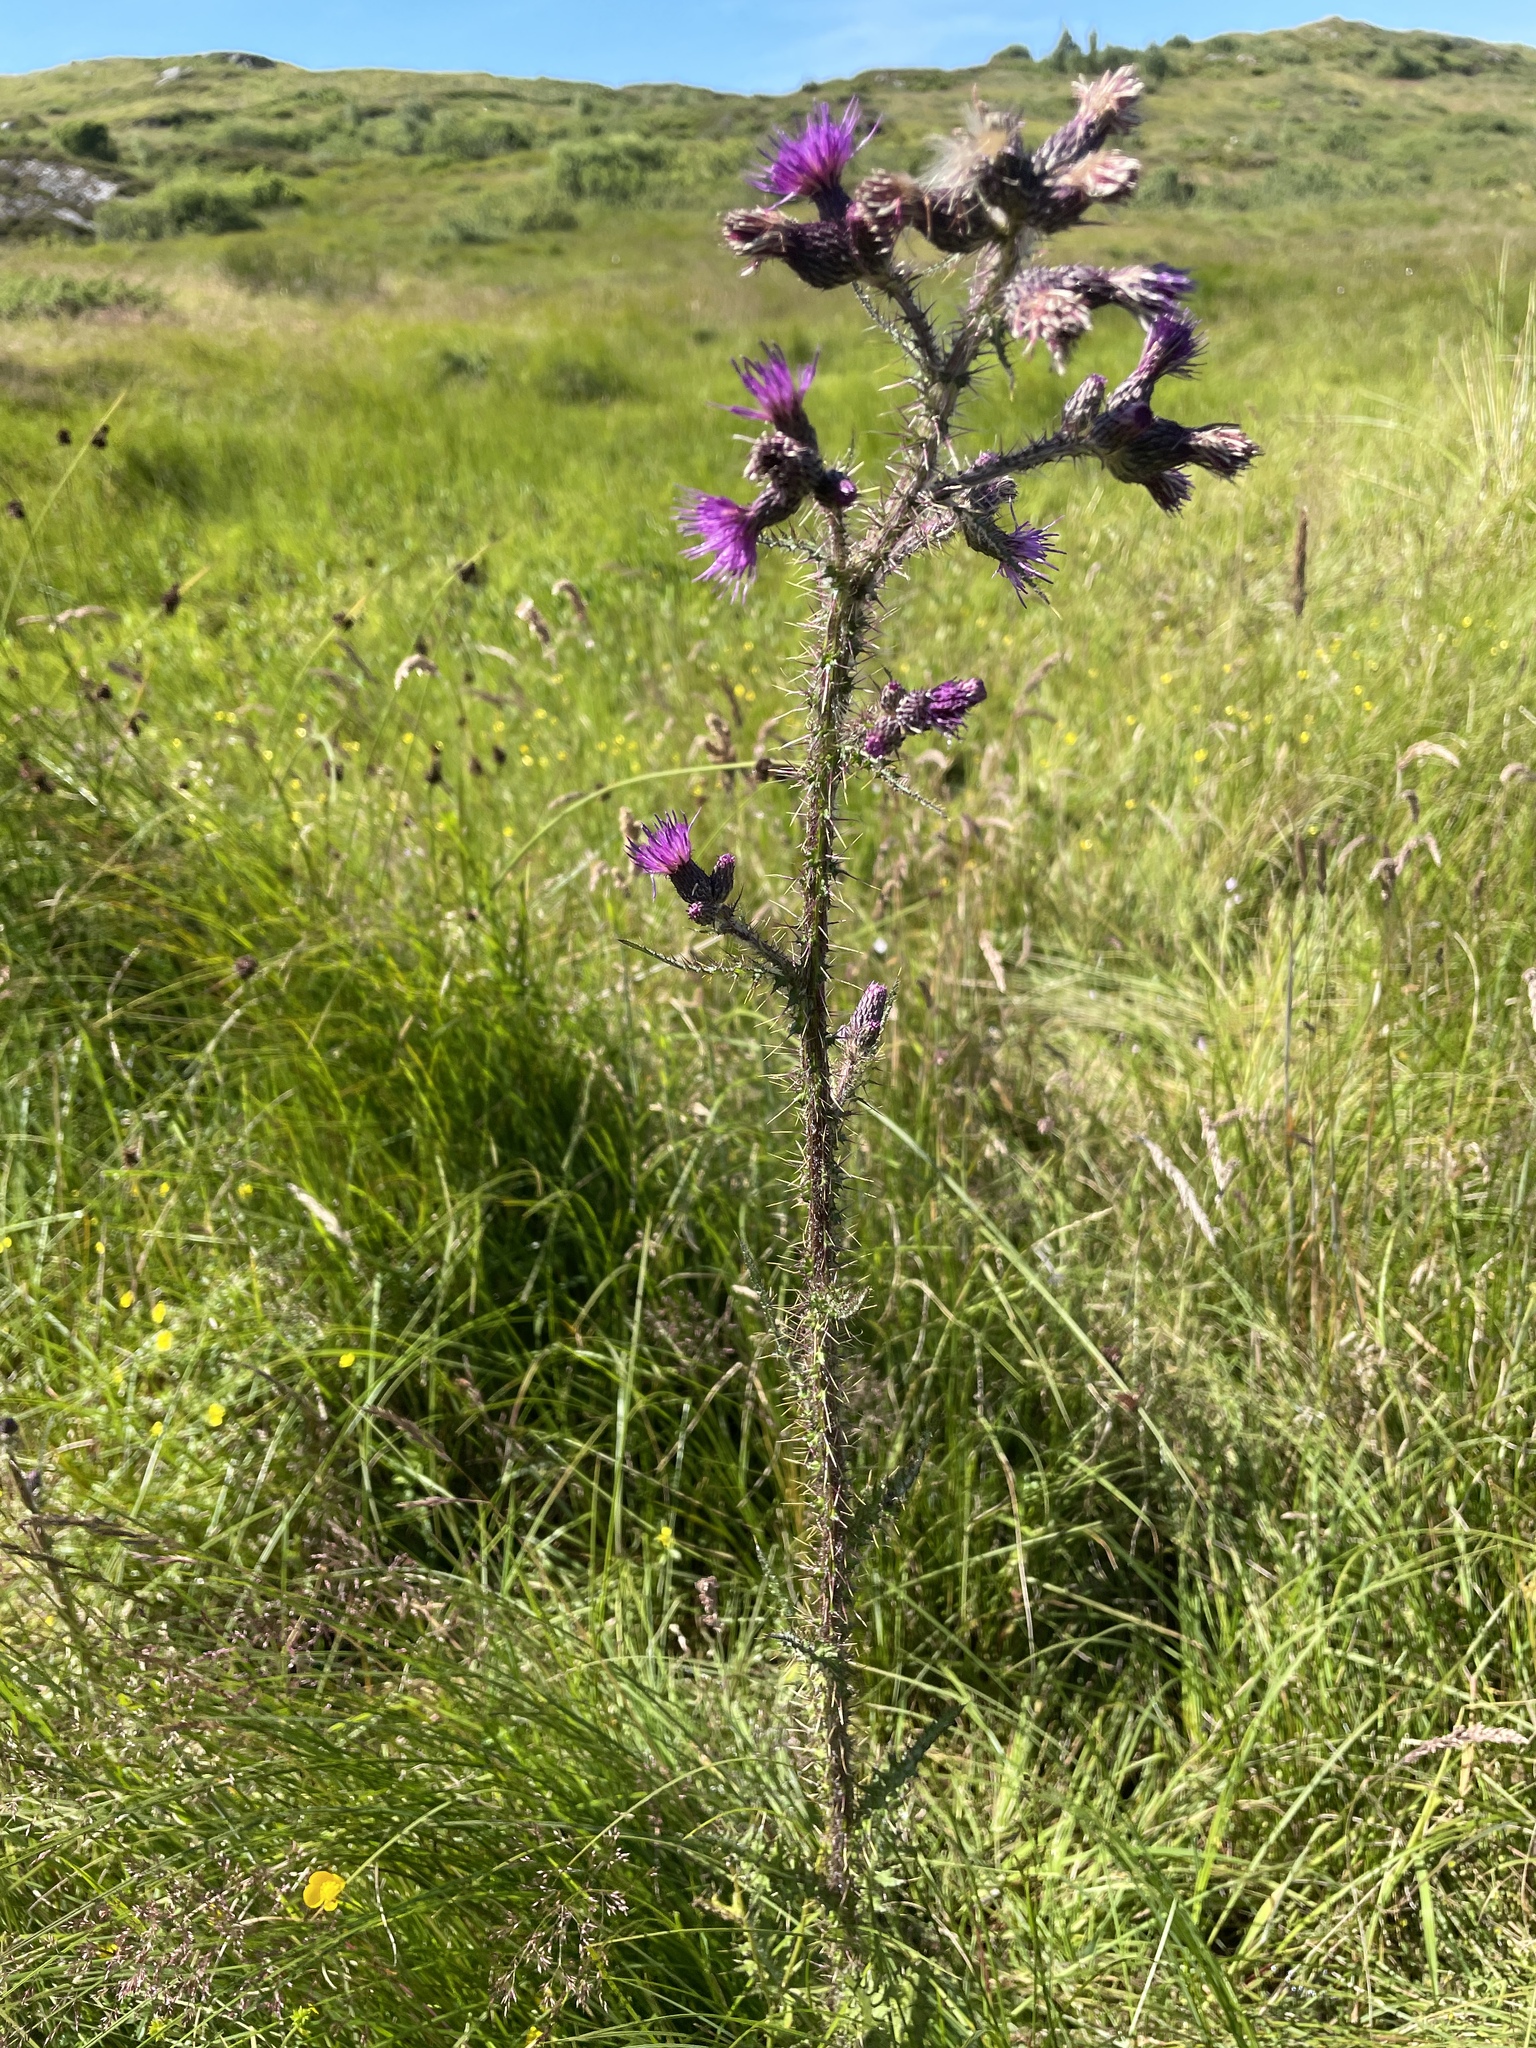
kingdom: Plantae
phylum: Tracheophyta
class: Magnoliopsida
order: Asterales
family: Asteraceae
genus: Cirsium
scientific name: Cirsium palustre
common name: Marsh thistle
